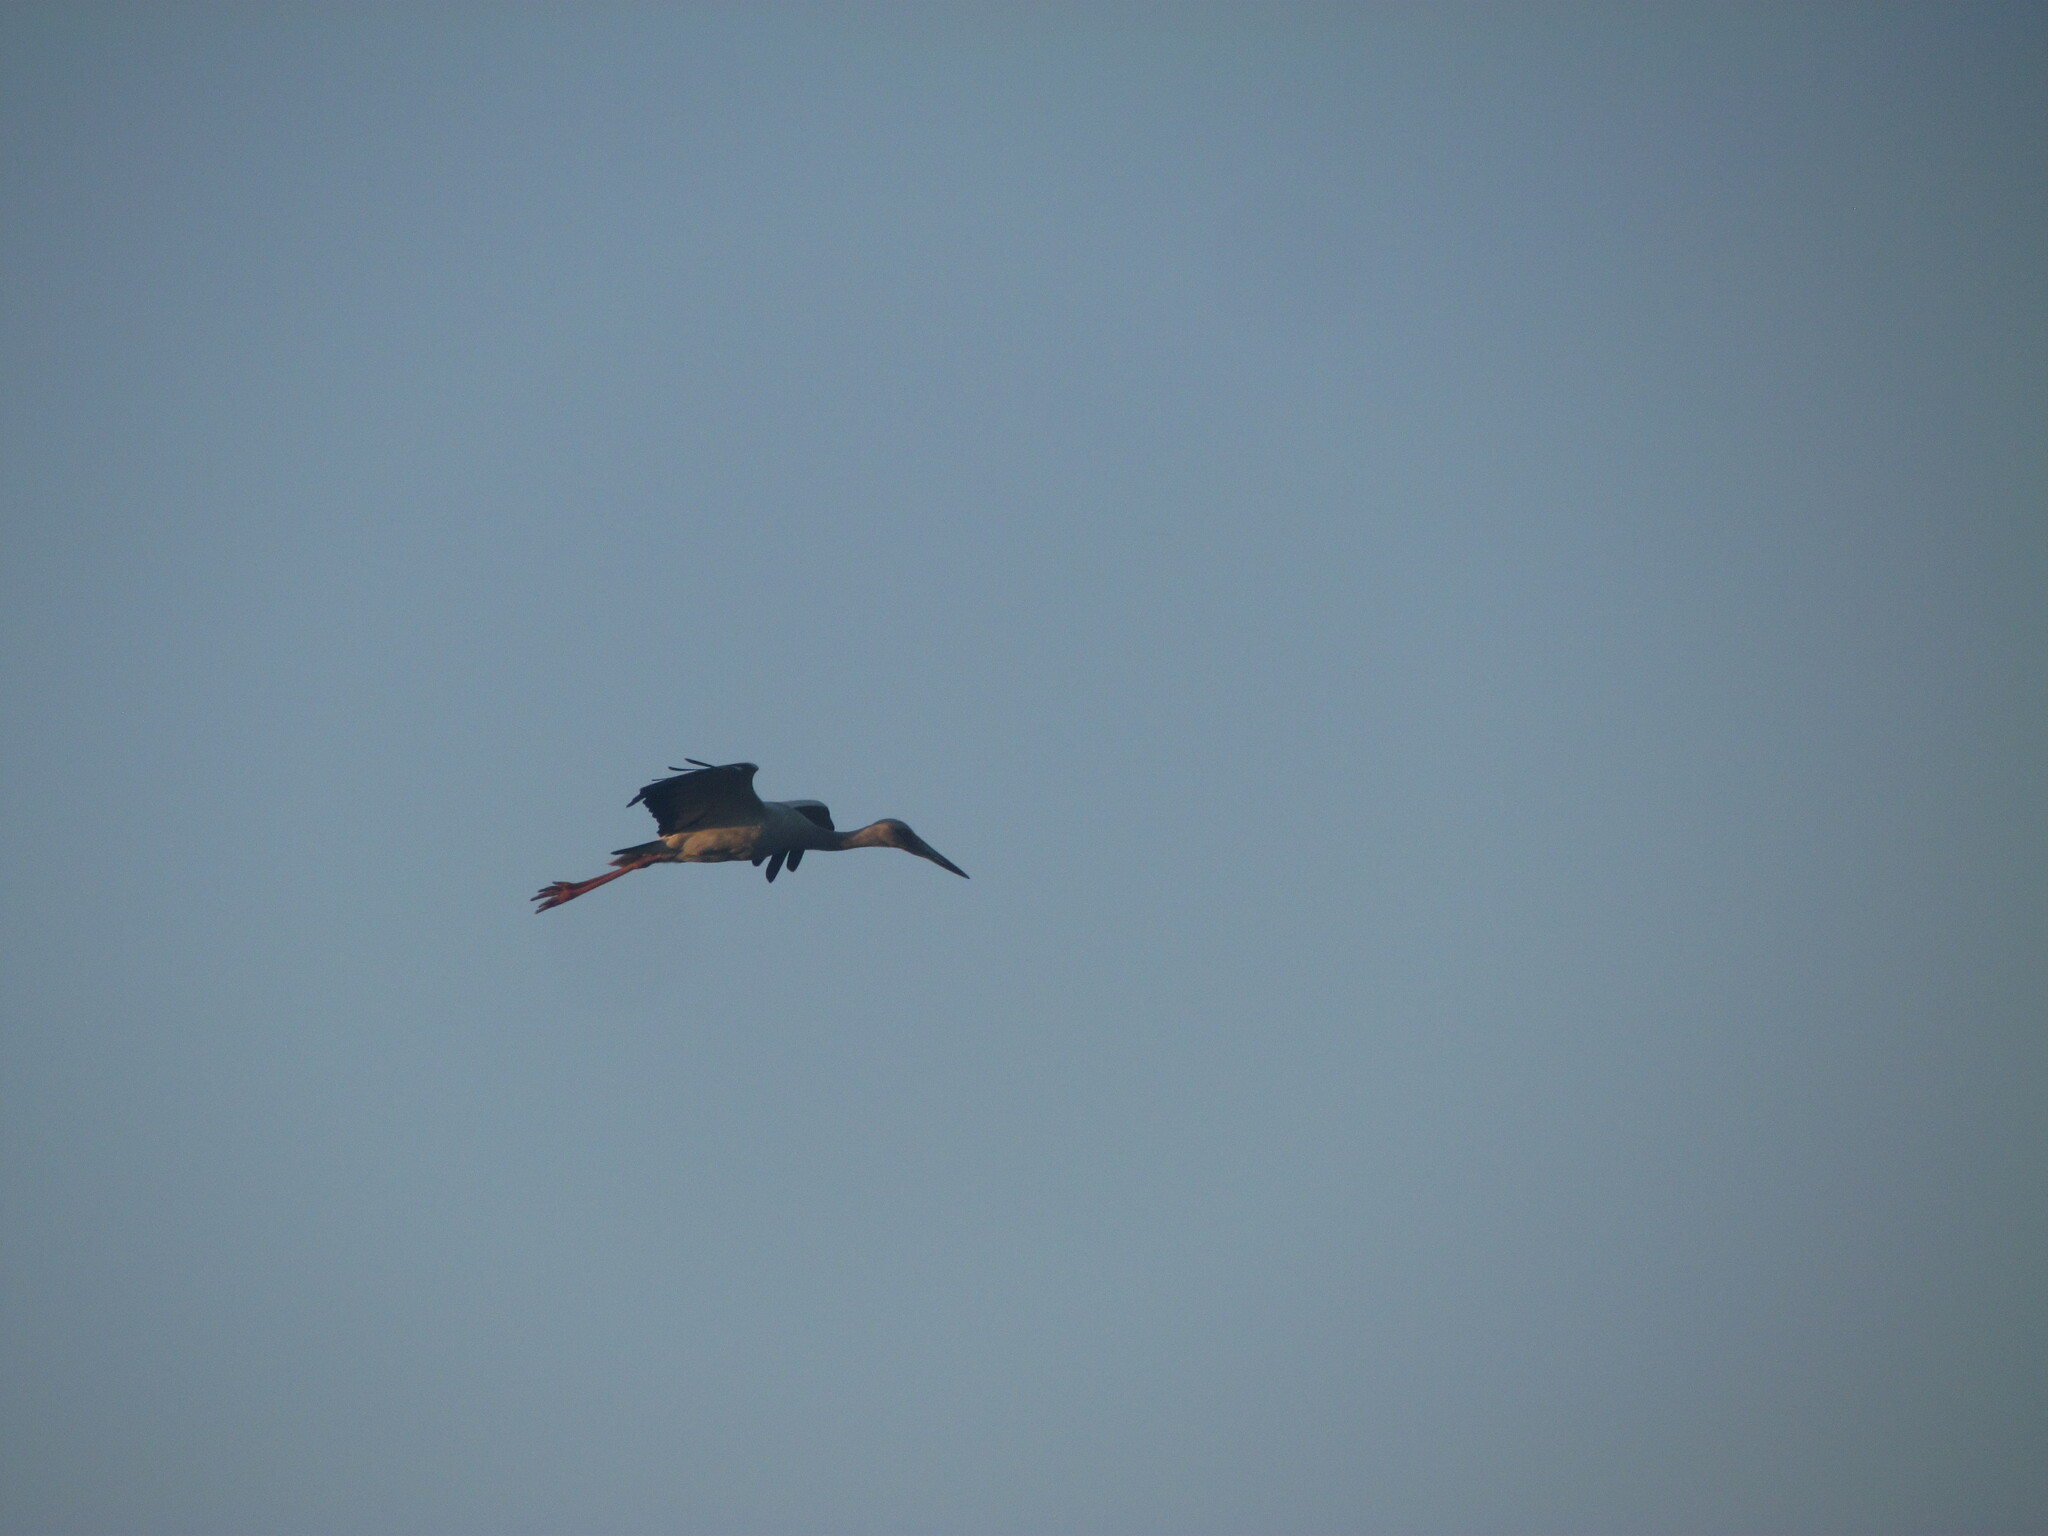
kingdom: Animalia
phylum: Chordata
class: Aves
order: Ciconiiformes
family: Ciconiidae
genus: Ciconia
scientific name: Ciconia maguari
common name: Maguari stork
